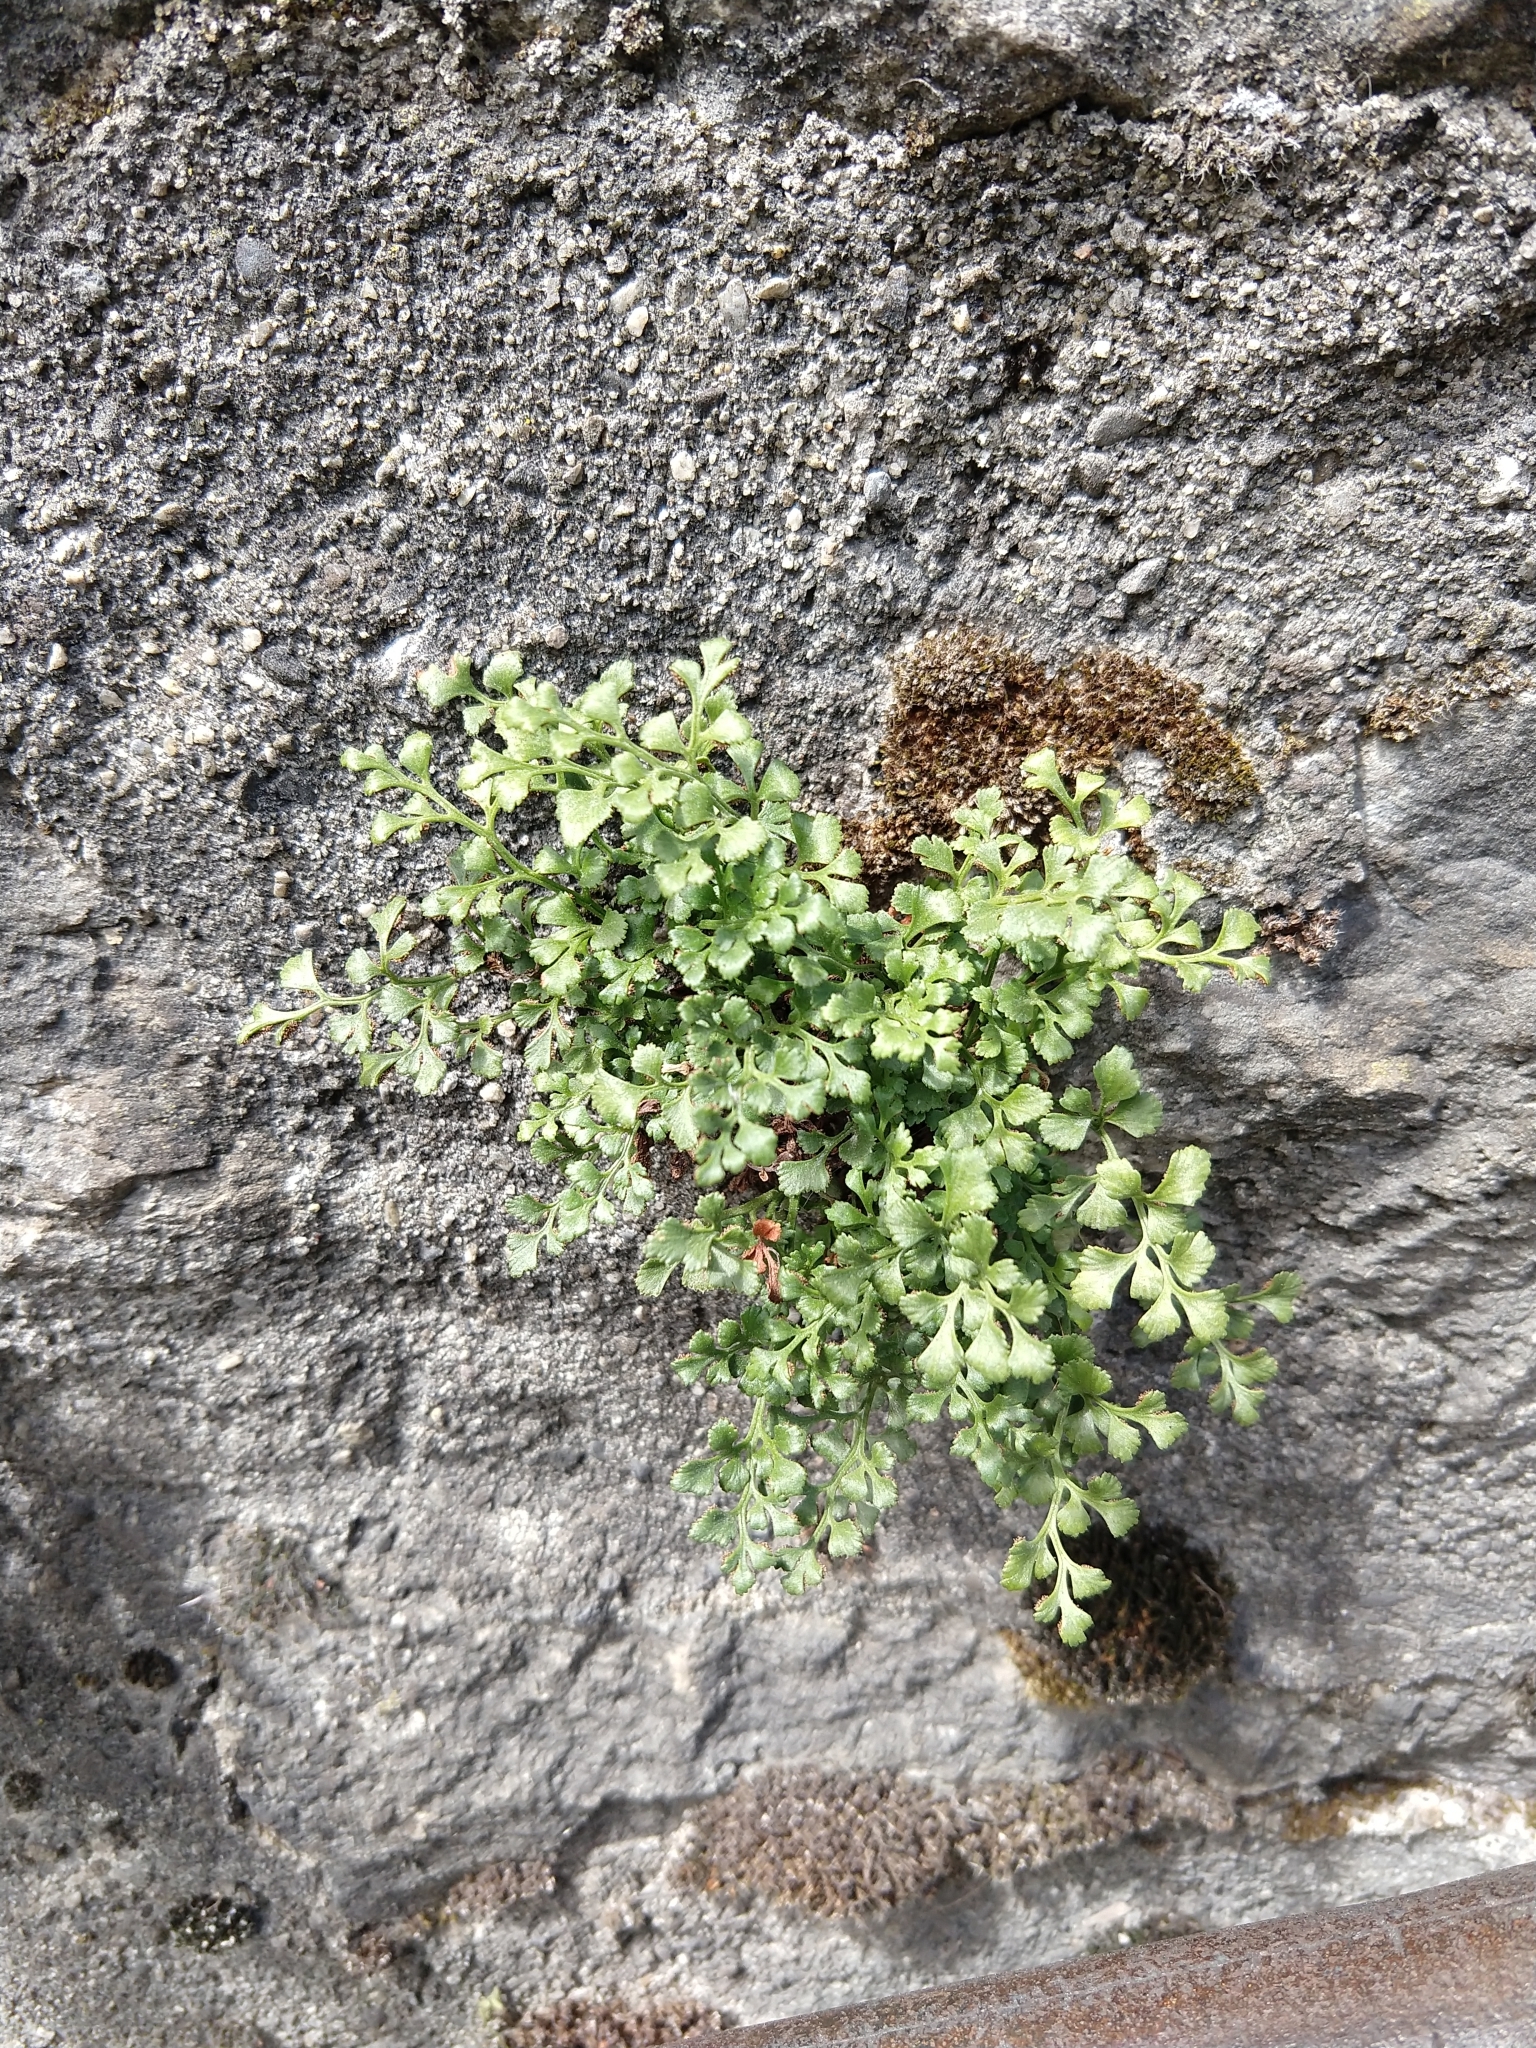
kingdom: Plantae
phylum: Tracheophyta
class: Polypodiopsida
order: Polypodiales
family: Aspleniaceae
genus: Asplenium
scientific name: Asplenium ruta-muraria
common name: Wall-rue
